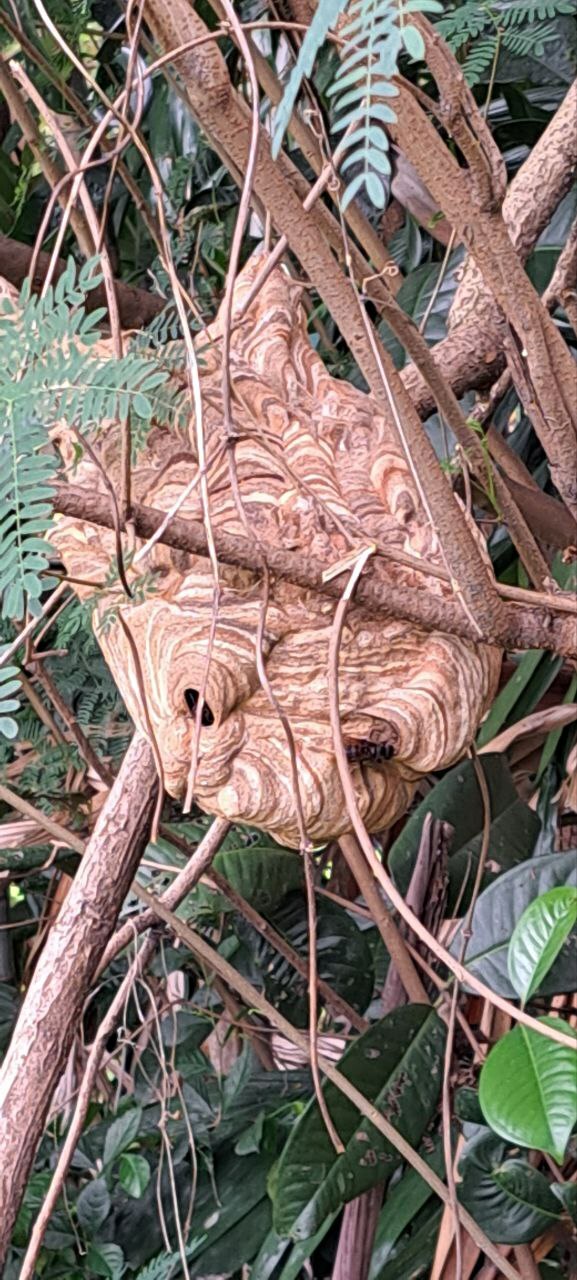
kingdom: Animalia
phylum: Arthropoda
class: Insecta
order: Hymenoptera
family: Vespidae
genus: Vespa
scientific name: Vespa analis
